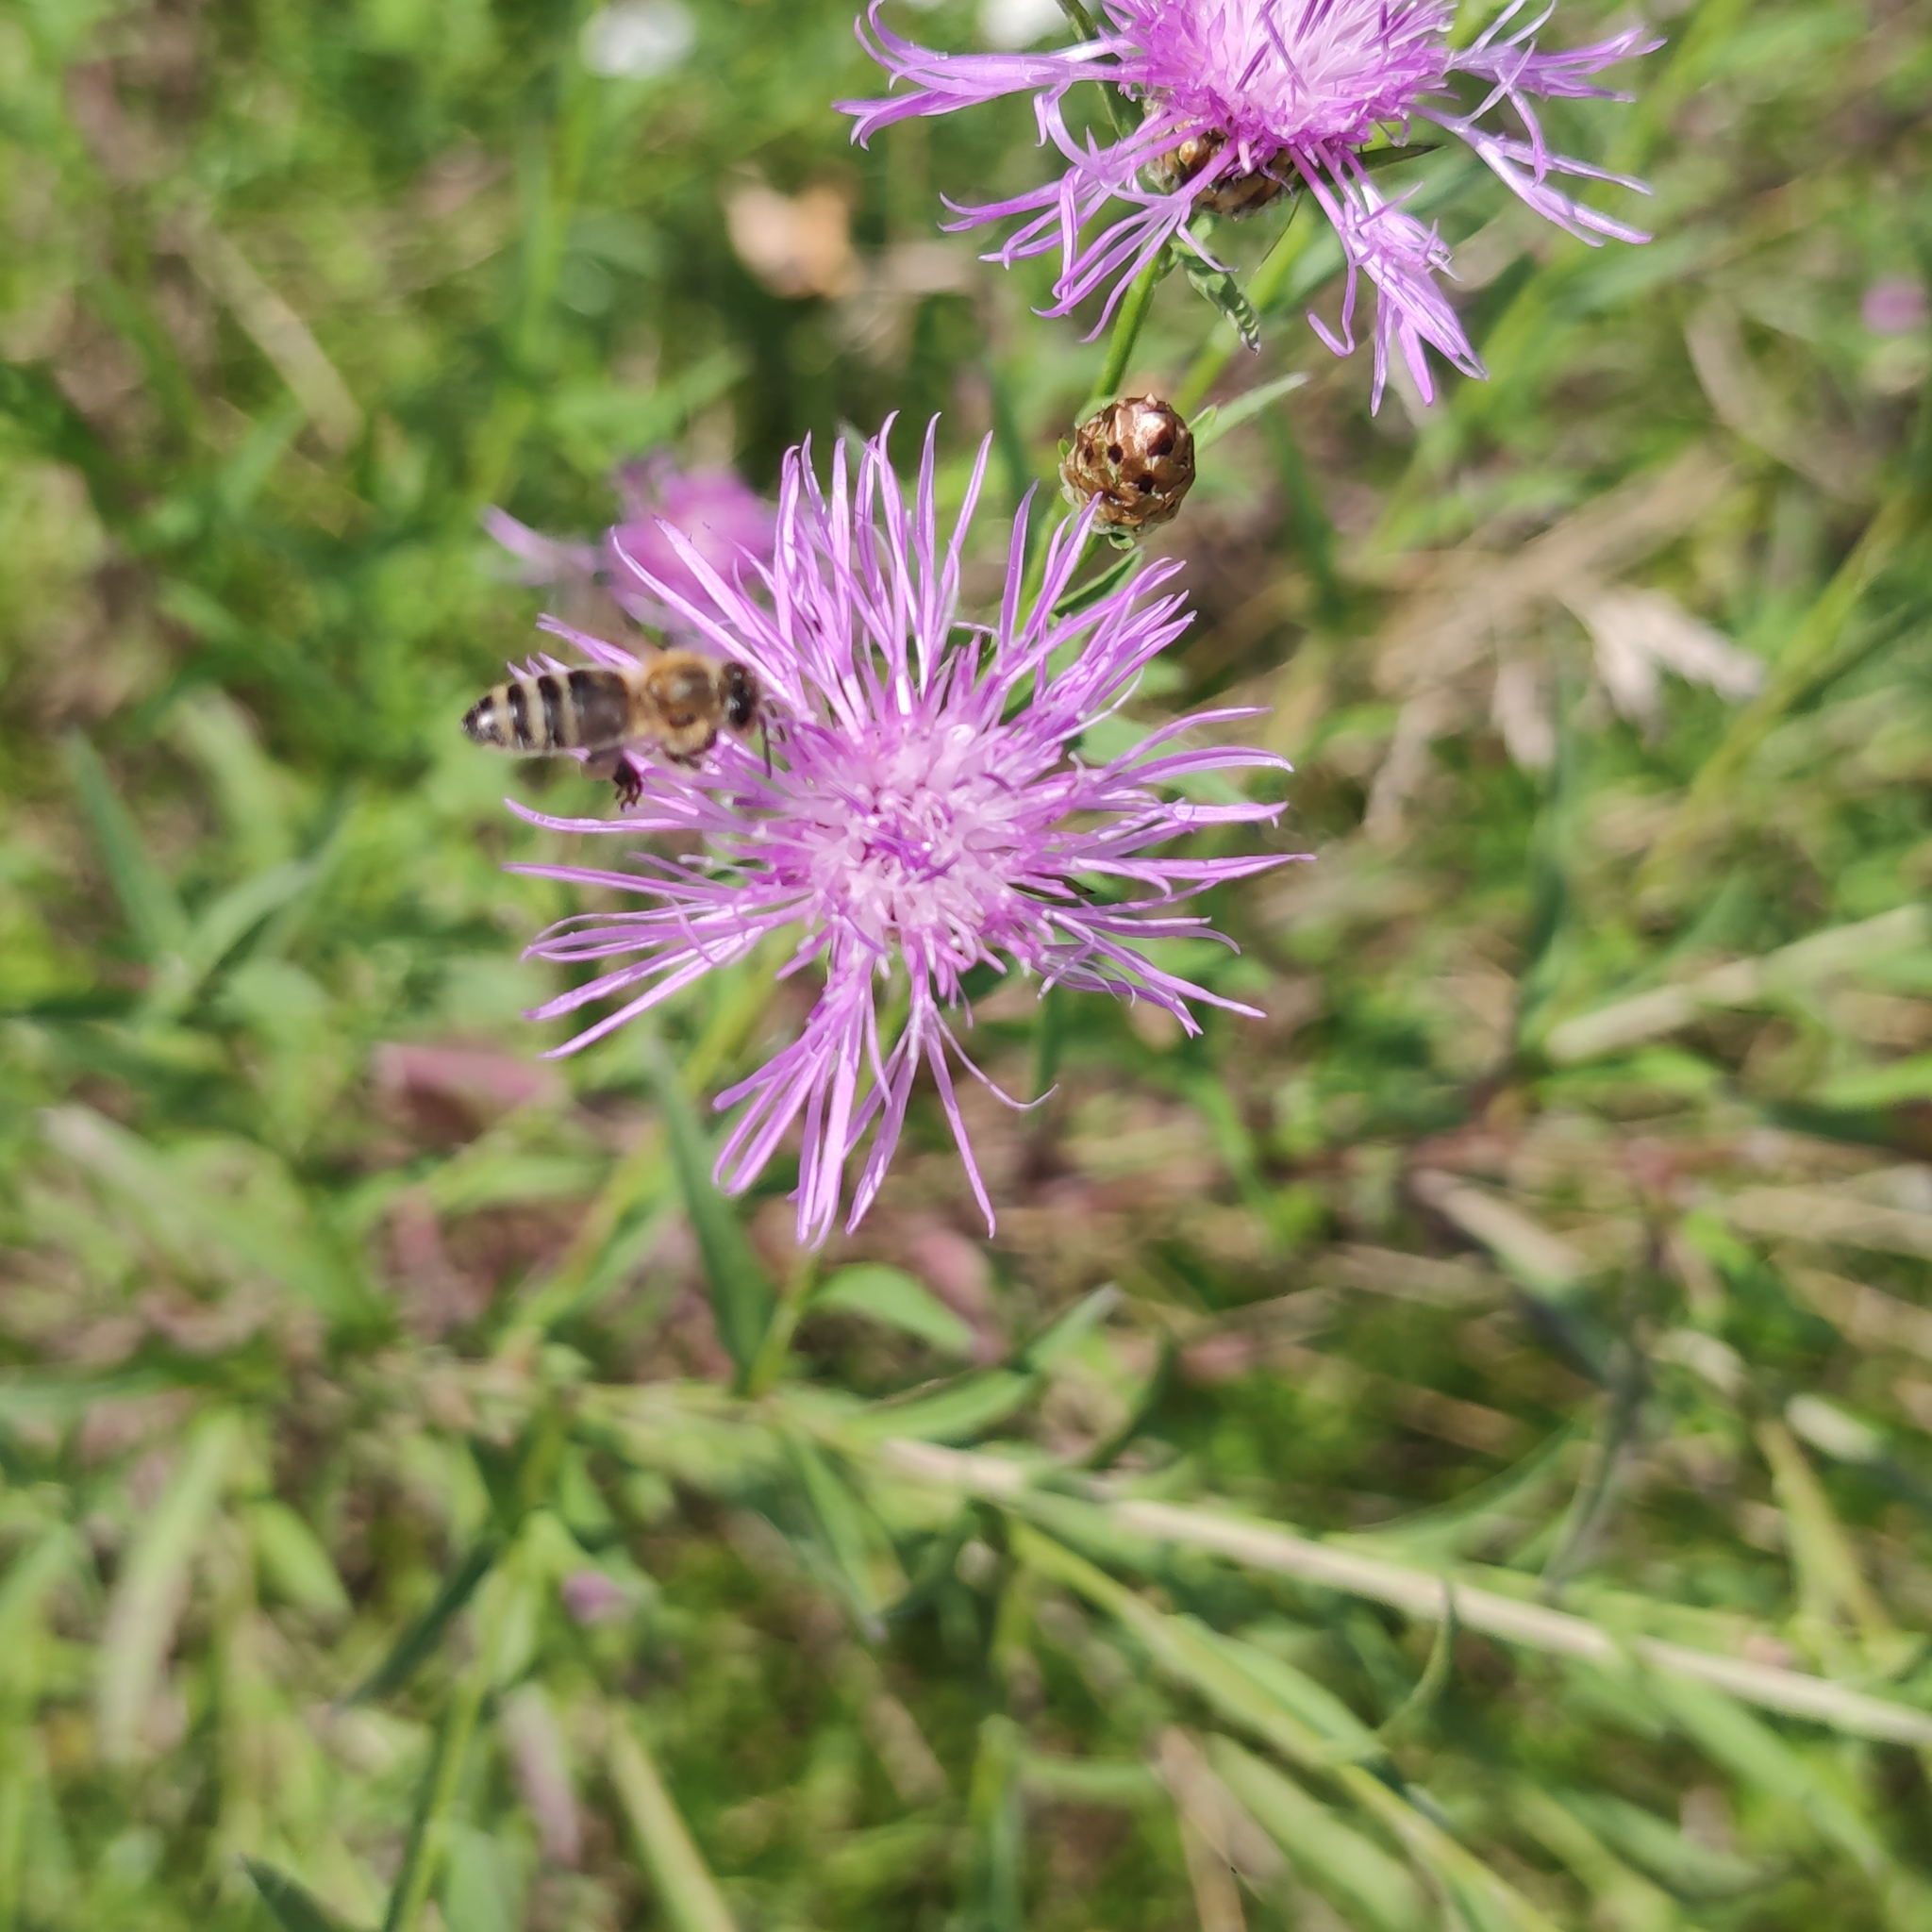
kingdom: Plantae
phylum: Tracheophyta
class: Magnoliopsida
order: Asterales
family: Asteraceae
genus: Centaurea
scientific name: Centaurea jacea
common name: Brown knapweed
